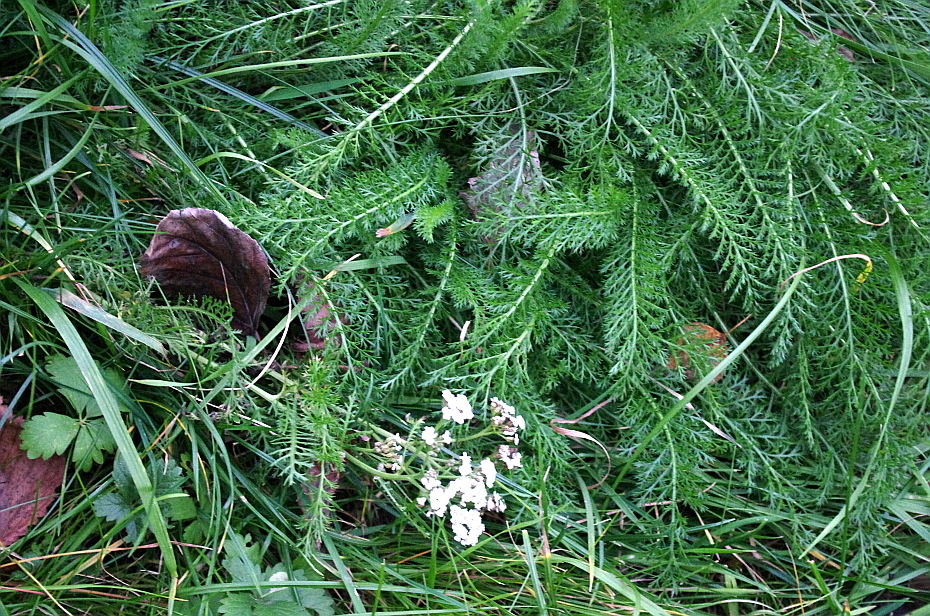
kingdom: Plantae
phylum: Tracheophyta
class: Magnoliopsida
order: Asterales
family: Asteraceae
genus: Achillea
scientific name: Achillea millefolium
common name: Yarrow
